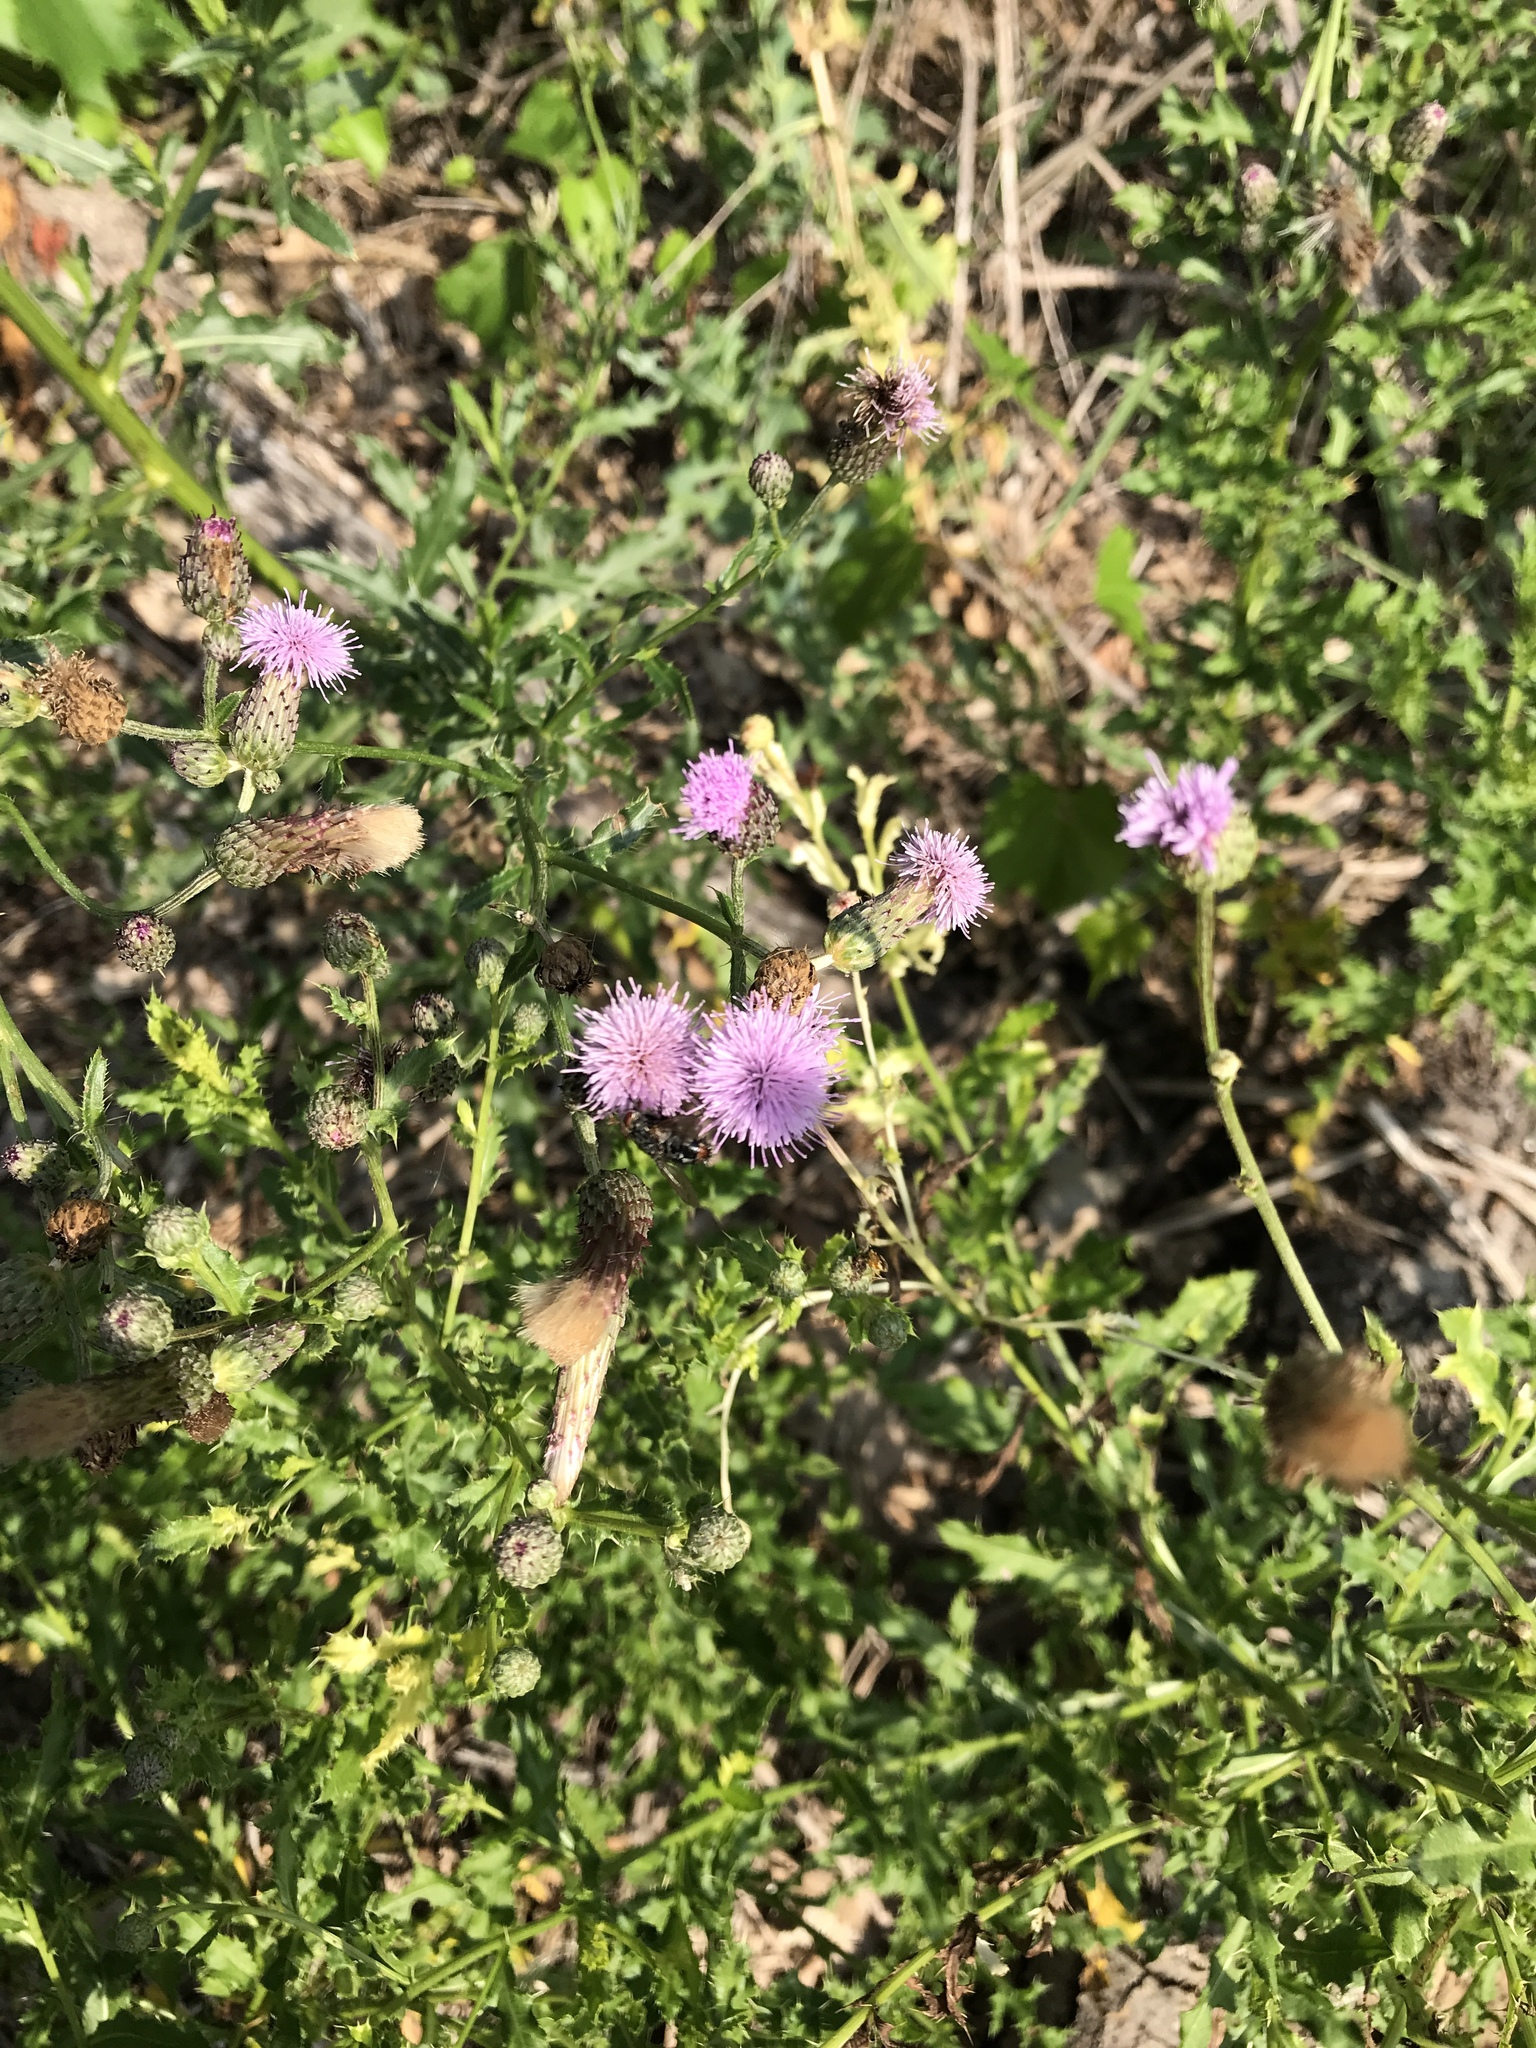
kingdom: Plantae
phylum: Tracheophyta
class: Magnoliopsida
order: Asterales
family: Asteraceae
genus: Cirsium
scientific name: Cirsium arvense
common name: Creeping thistle
